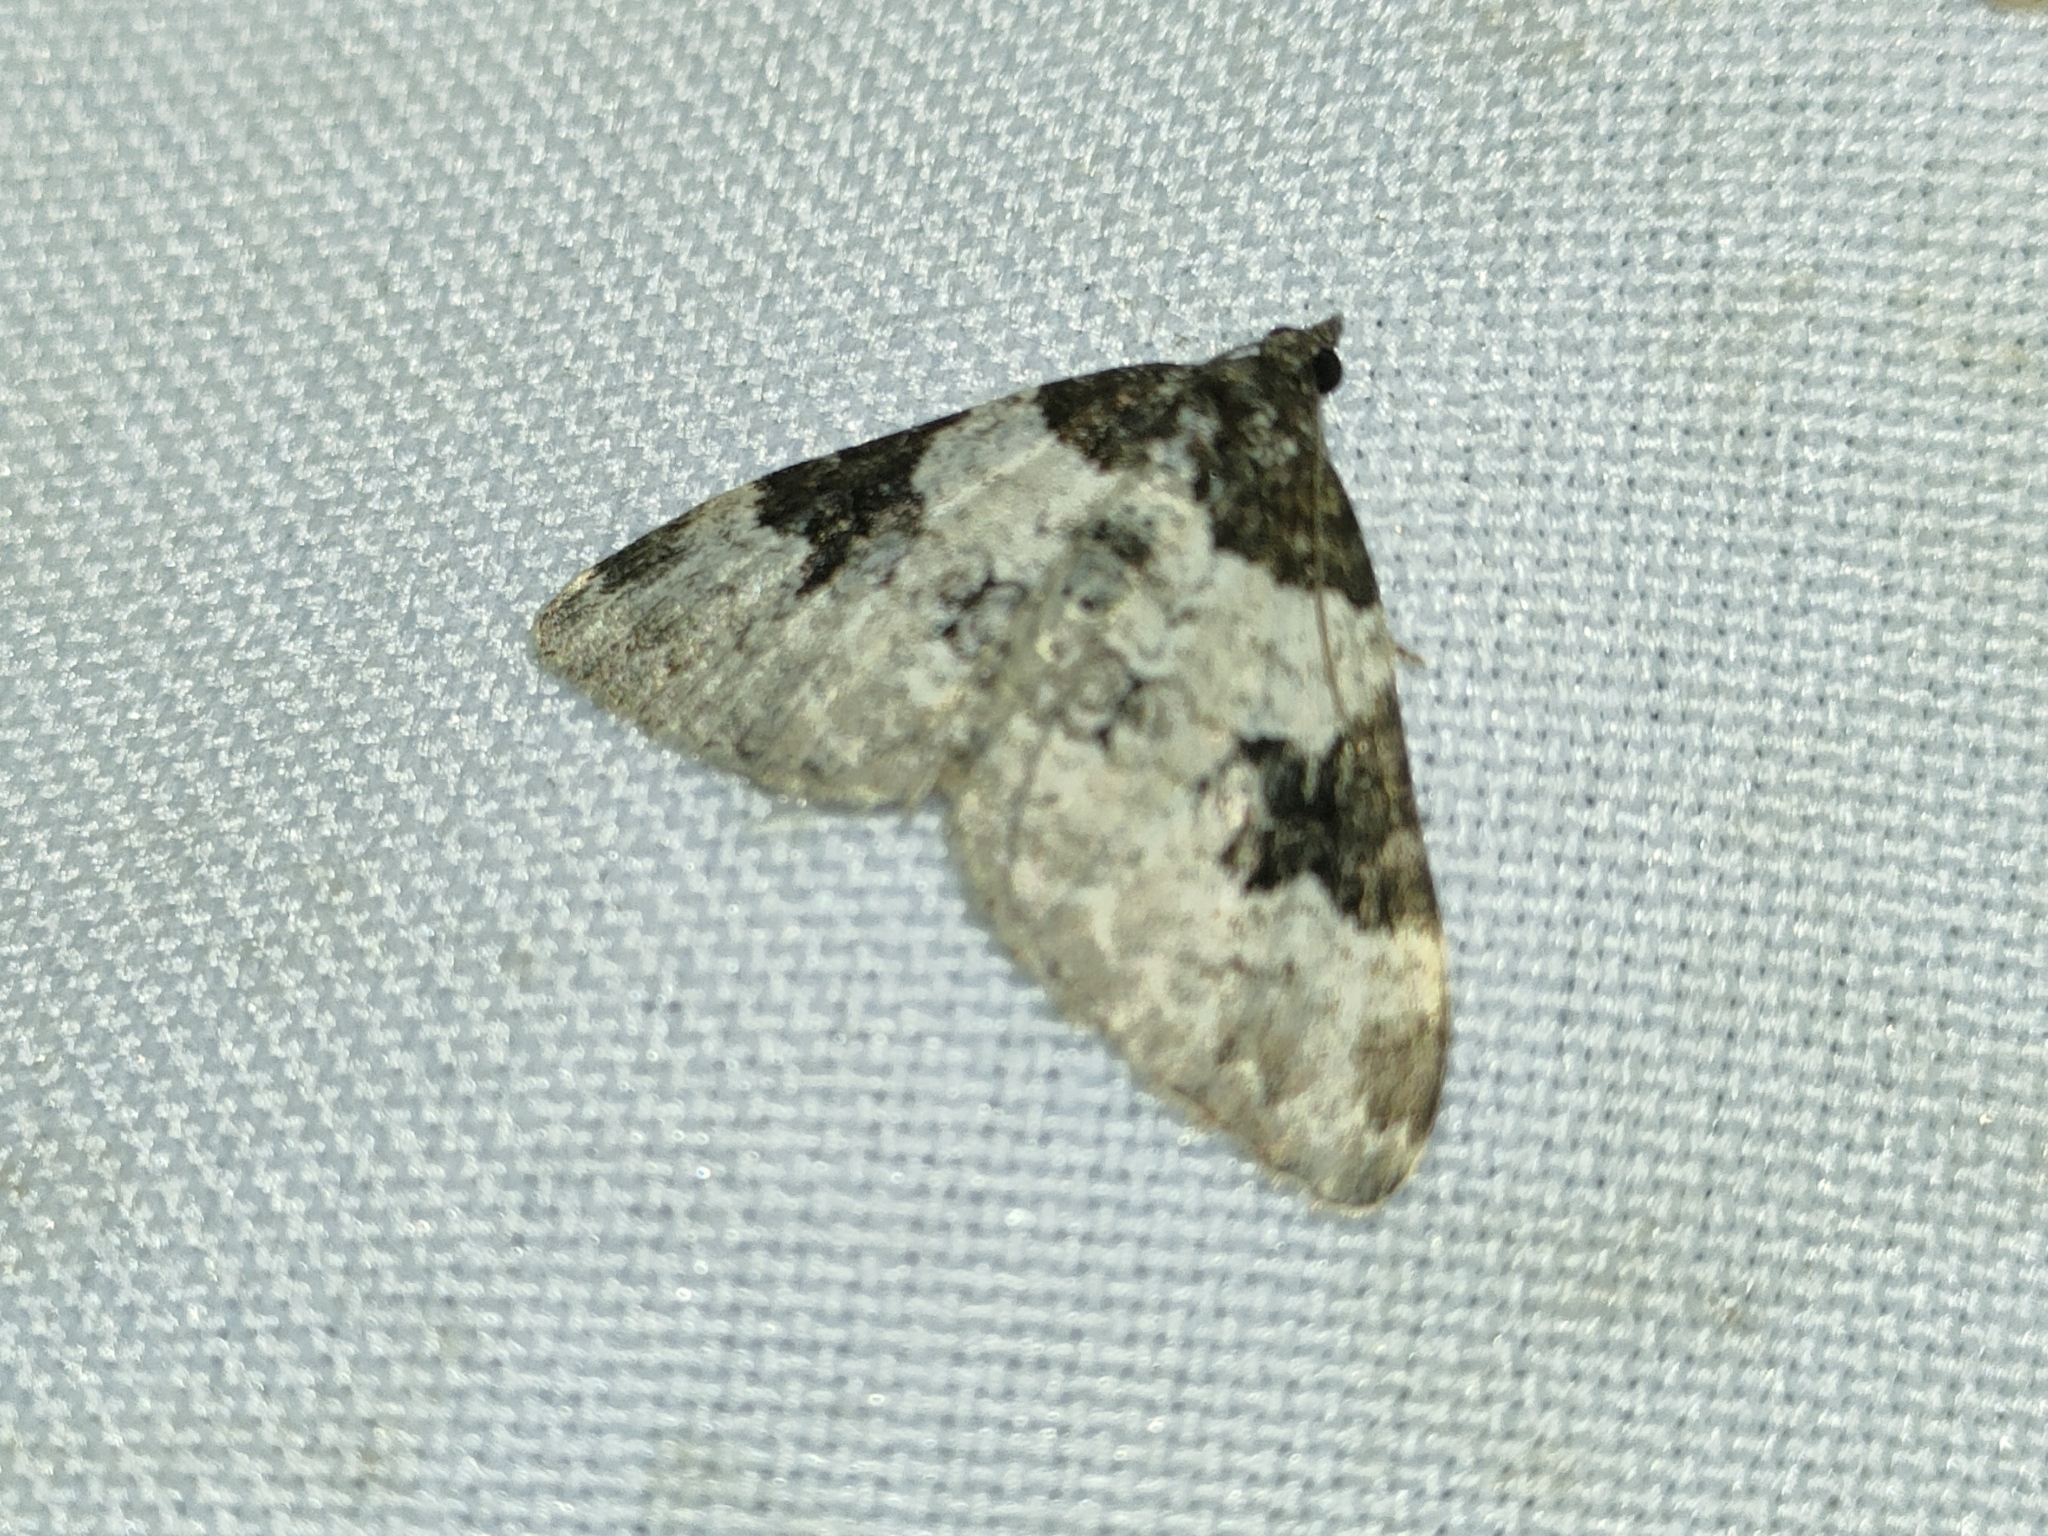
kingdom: Animalia
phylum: Arthropoda
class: Insecta
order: Lepidoptera
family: Geometridae
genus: Xanthorhoe
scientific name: Xanthorhoe fluctuata
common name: Garden carpet
